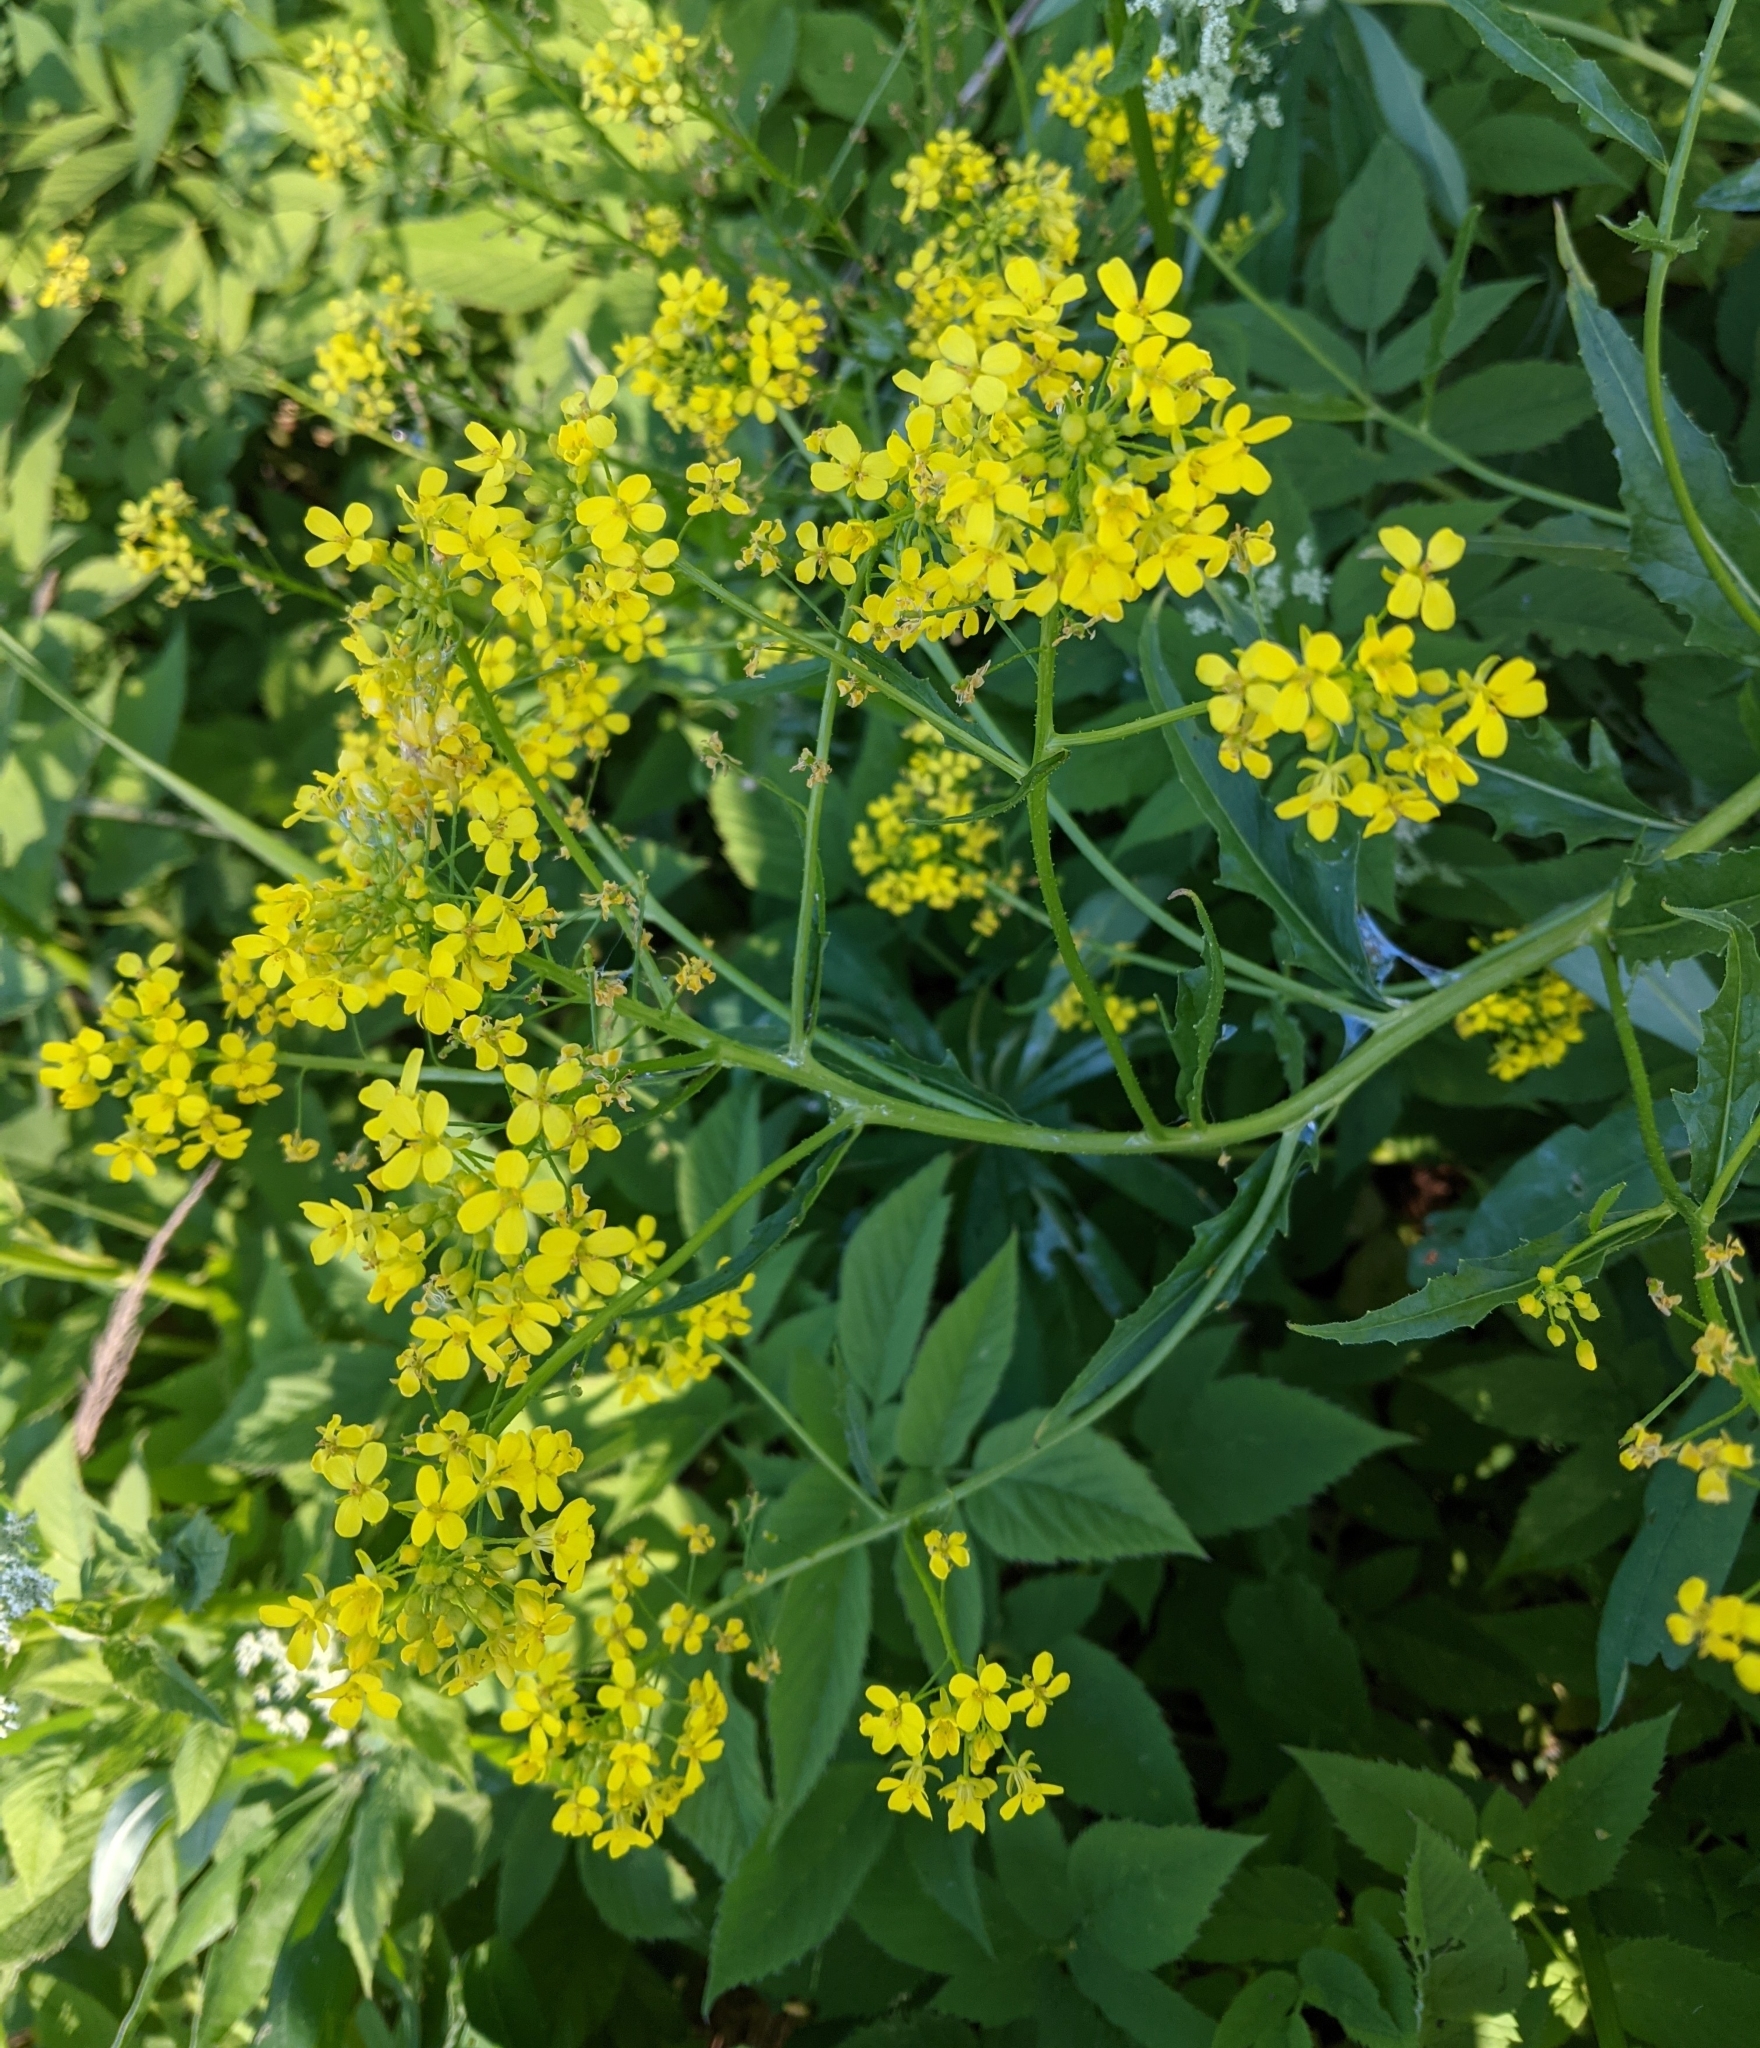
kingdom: Plantae
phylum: Tracheophyta
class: Magnoliopsida
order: Brassicales
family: Brassicaceae
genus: Bunias
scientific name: Bunias orientalis
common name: Warty-cabbage
